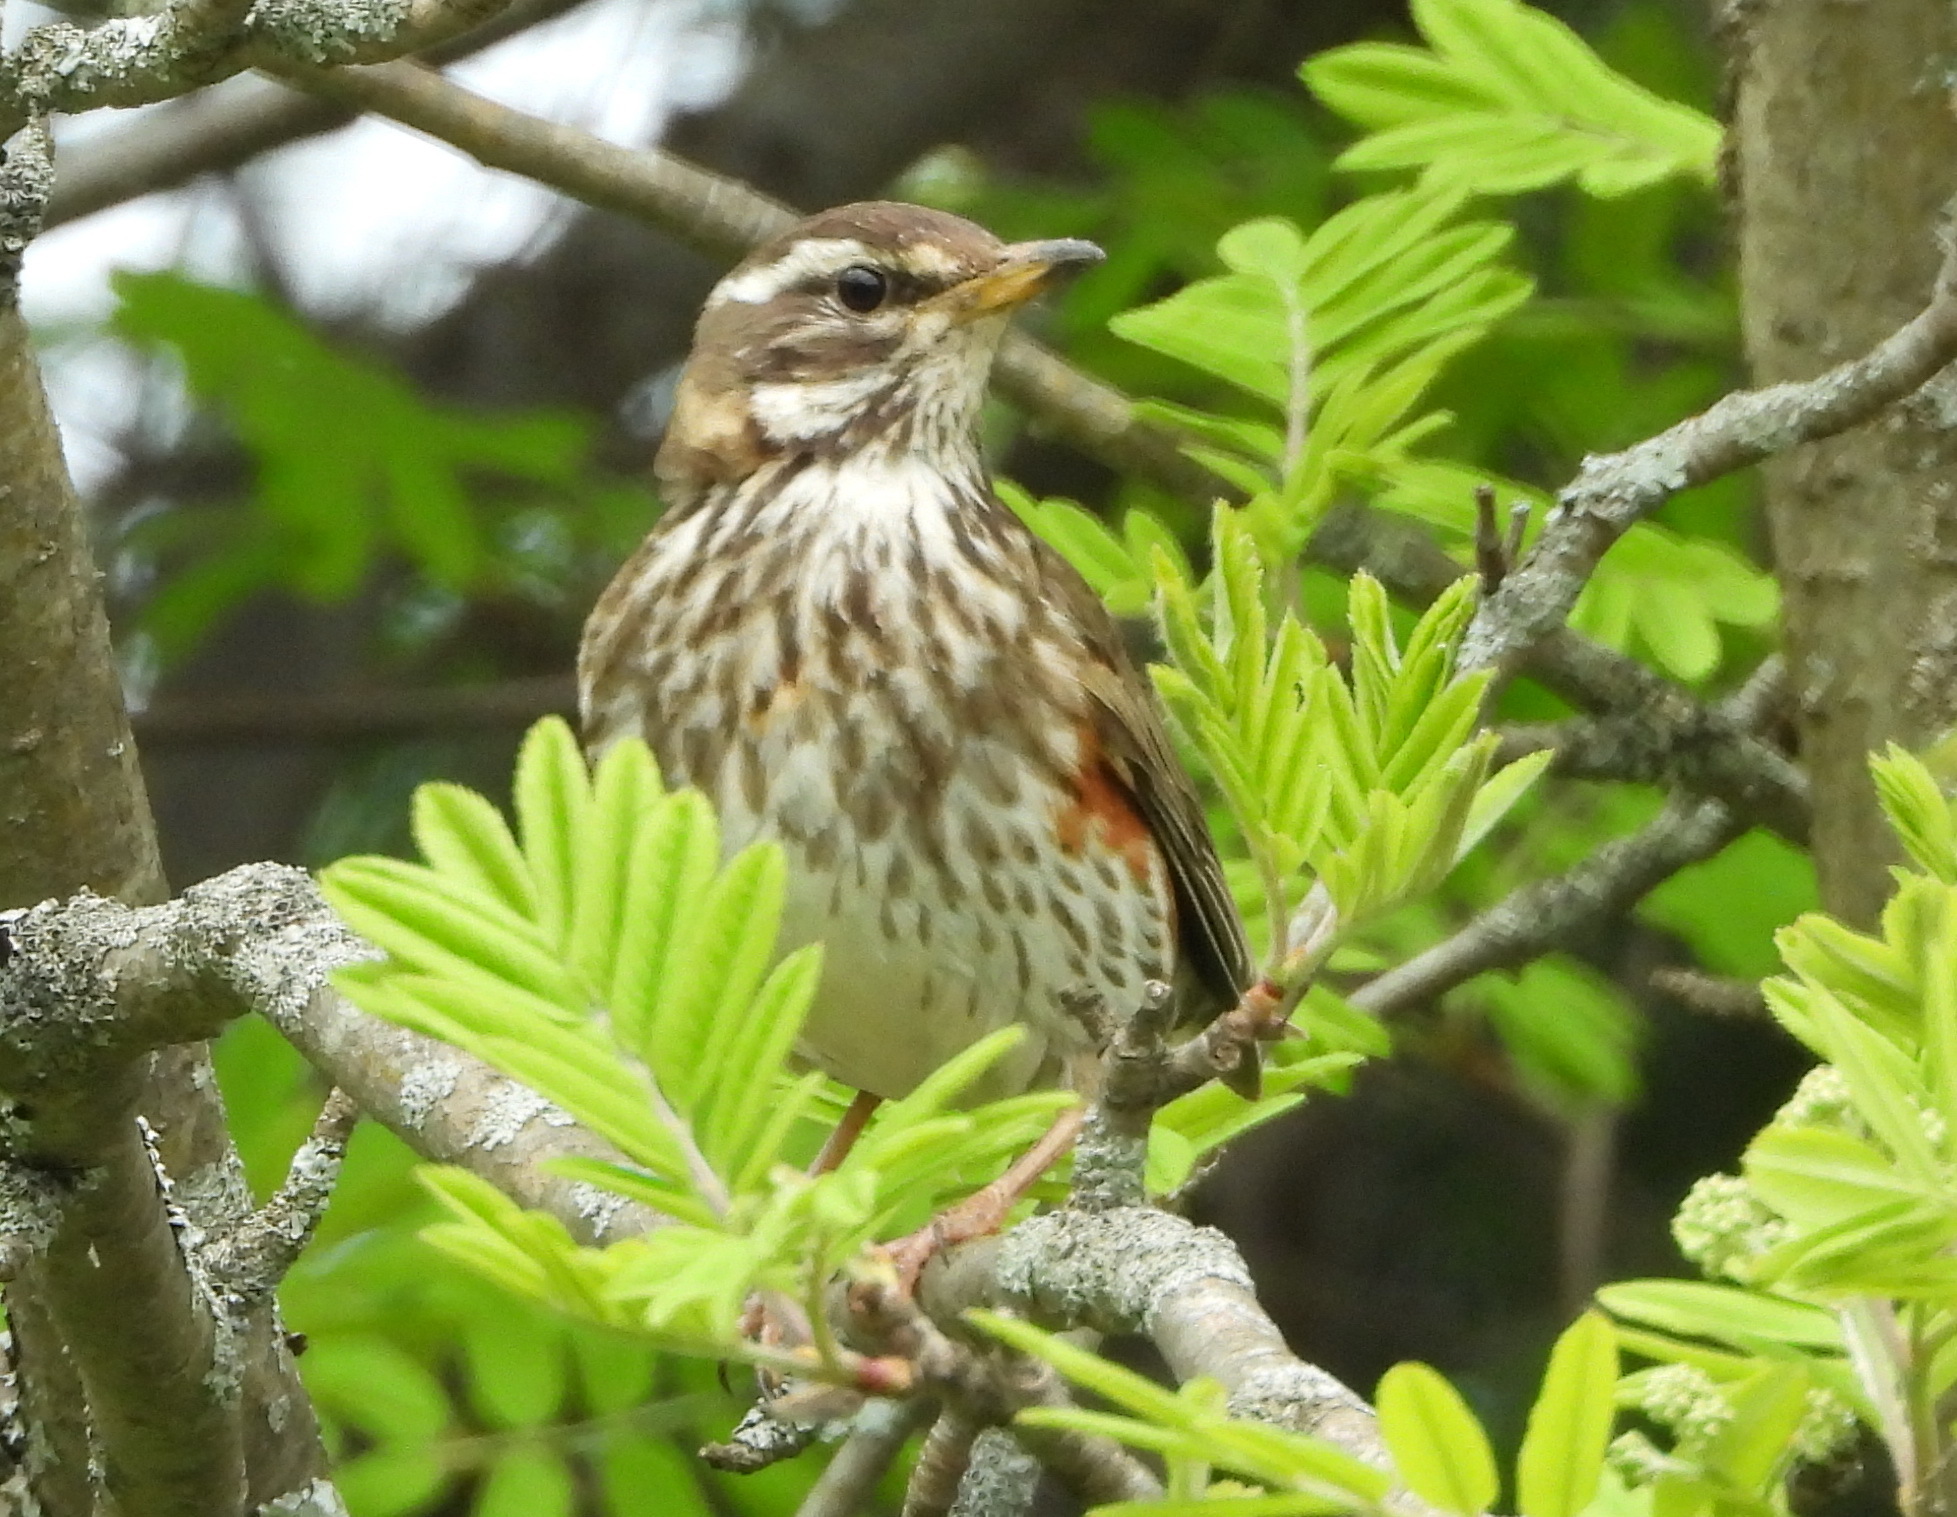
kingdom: Animalia
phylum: Chordata
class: Aves
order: Passeriformes
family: Turdidae
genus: Turdus
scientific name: Turdus iliacus
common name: Redwing
